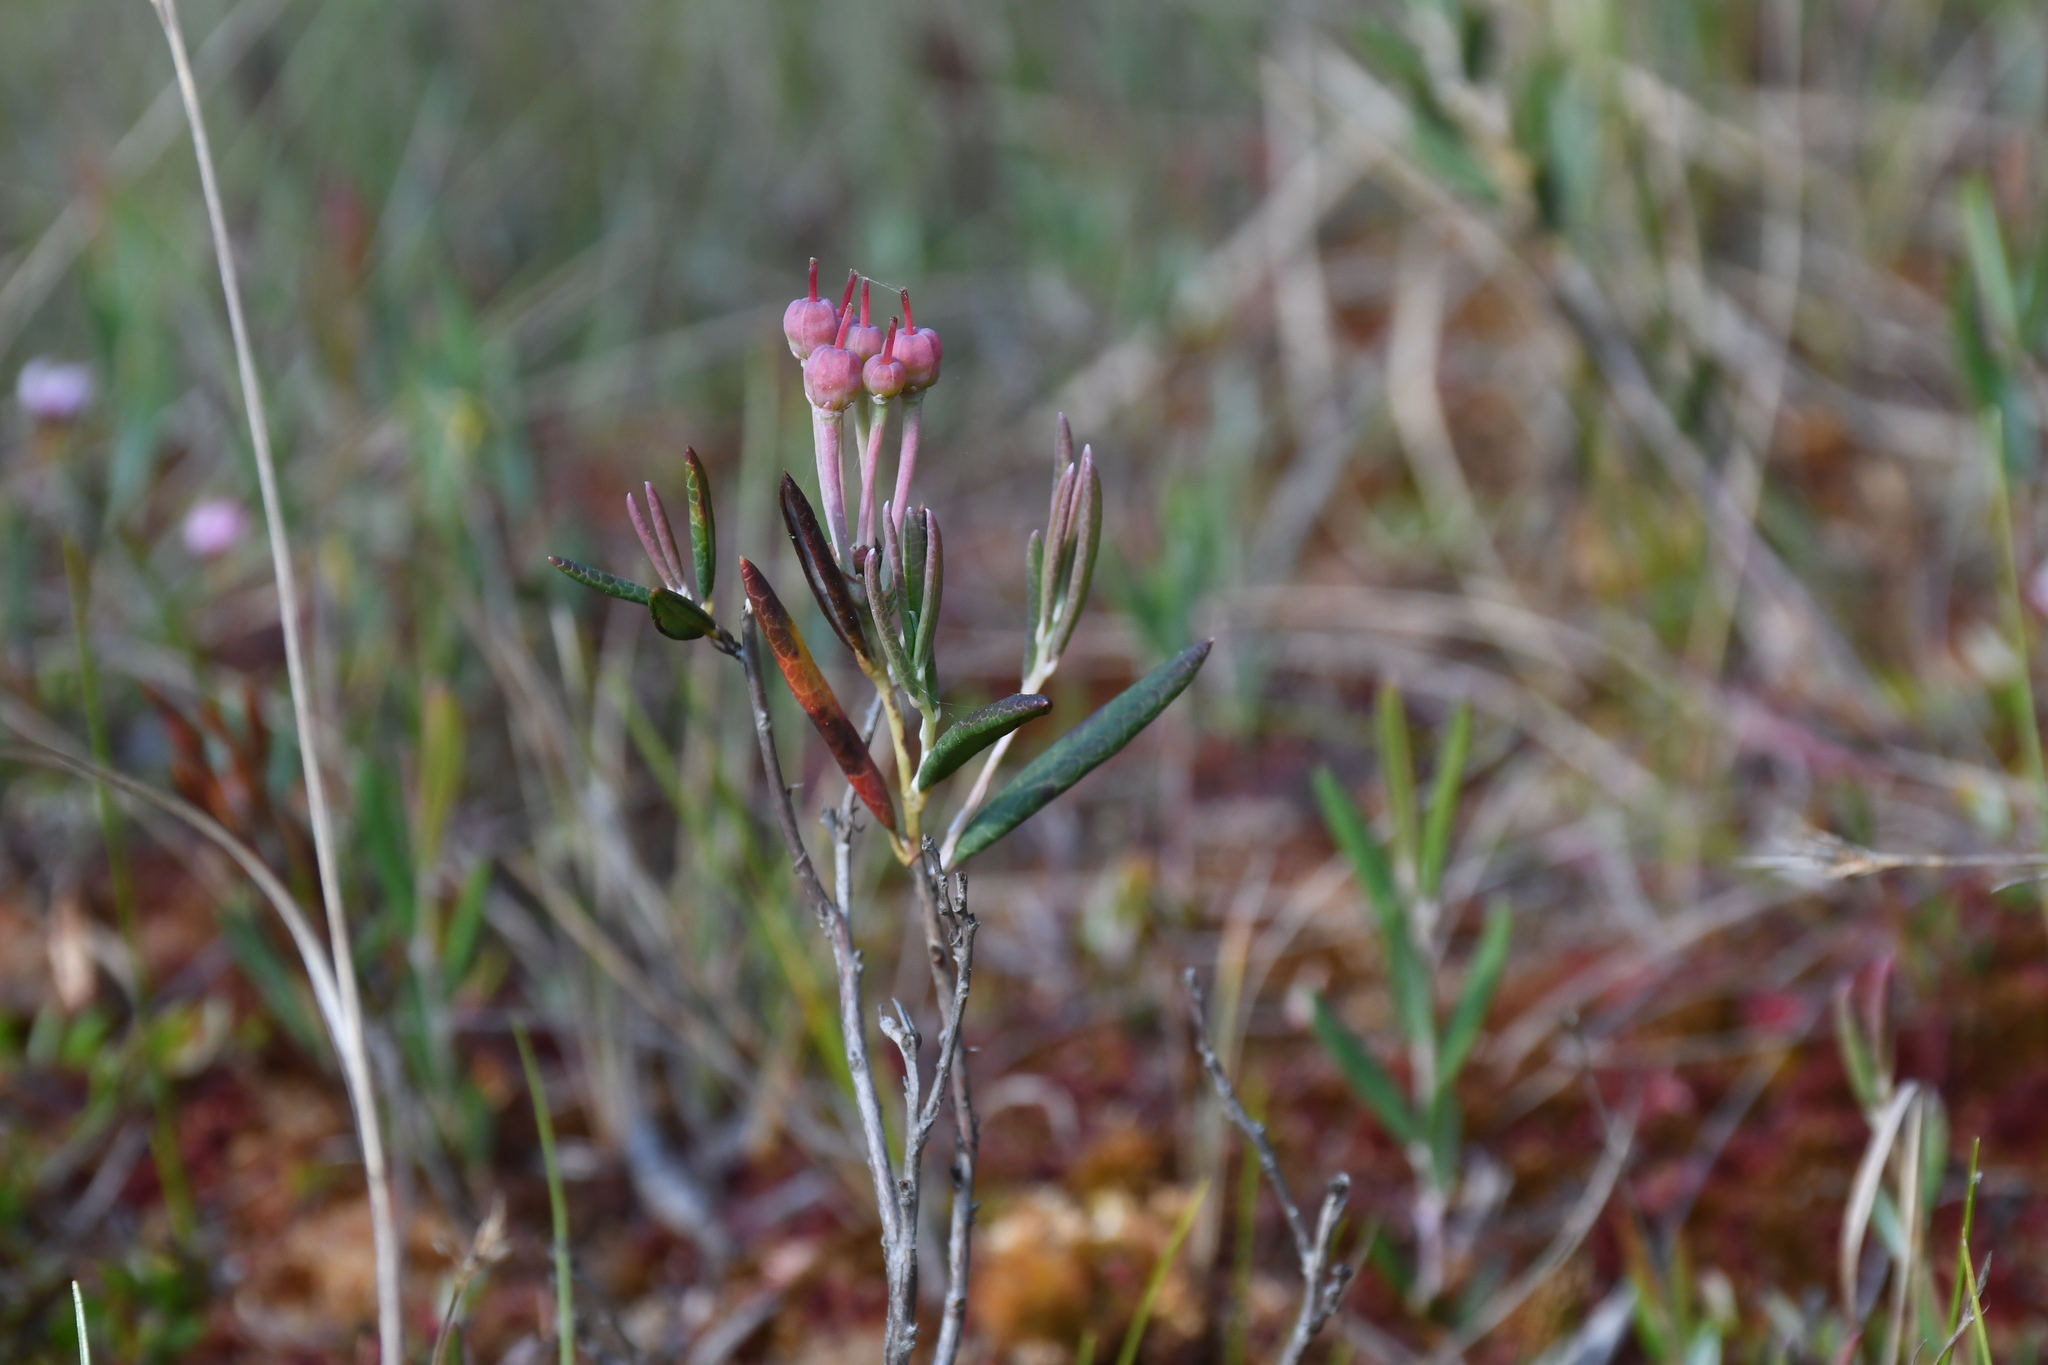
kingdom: Plantae
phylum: Tracheophyta
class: Magnoliopsida
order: Ericales
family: Ericaceae
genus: Andromeda
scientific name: Andromeda polifolia
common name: Bog-rosemary
